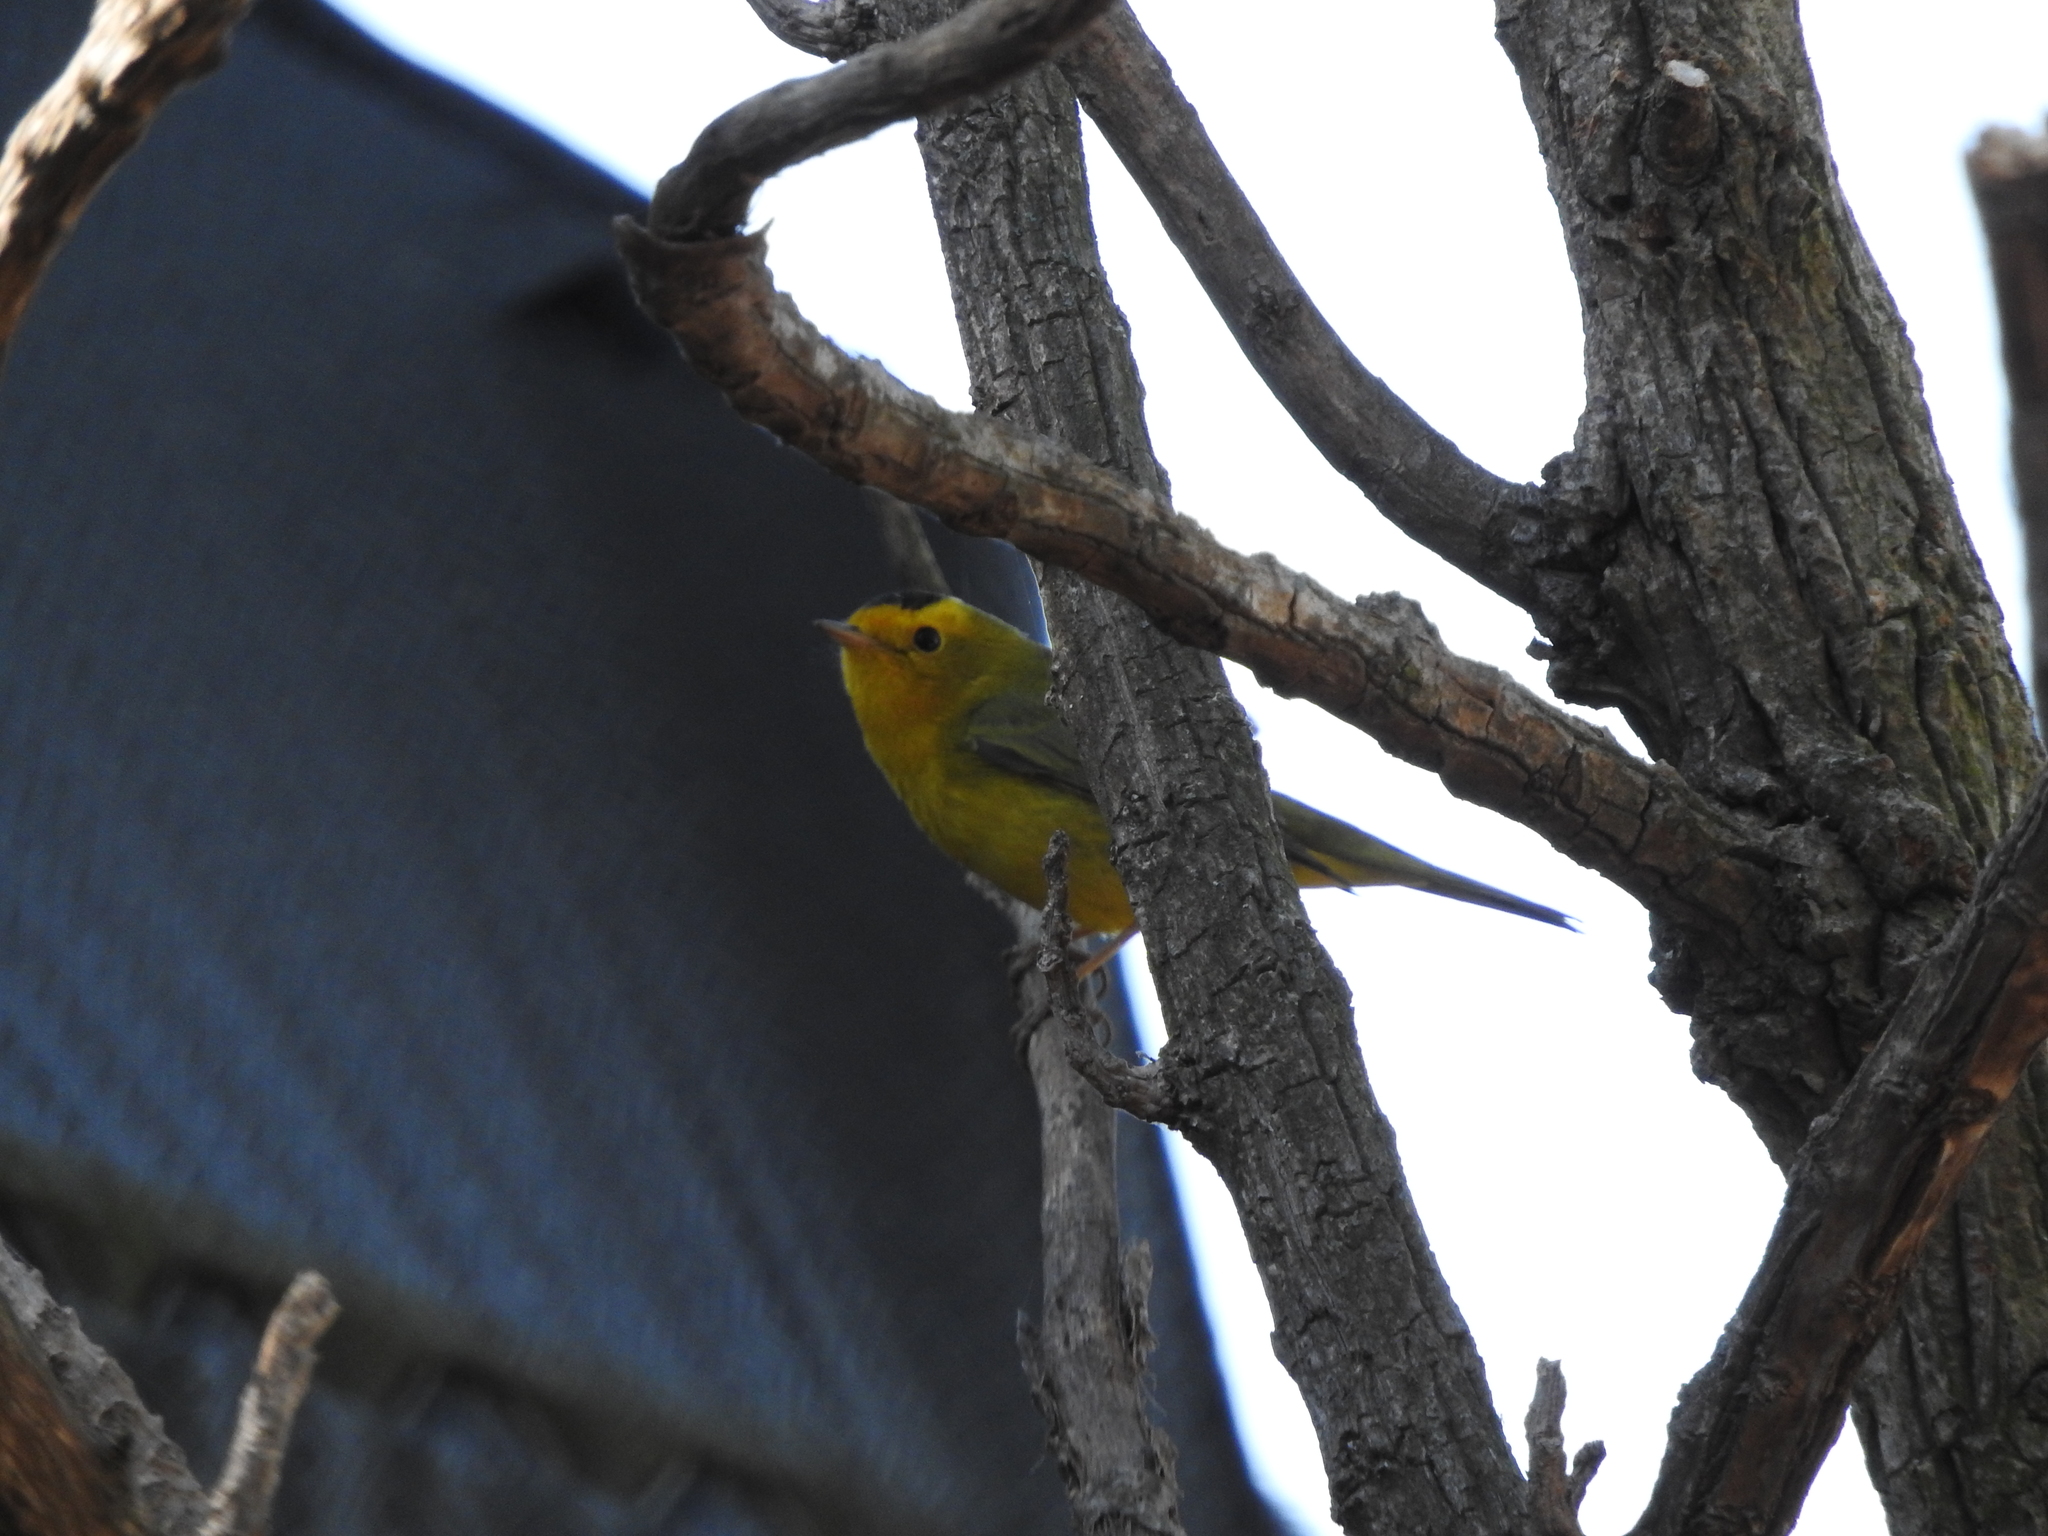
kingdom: Animalia
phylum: Chordata
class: Aves
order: Passeriformes
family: Parulidae
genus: Cardellina
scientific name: Cardellina pusilla
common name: Wilson's warbler
